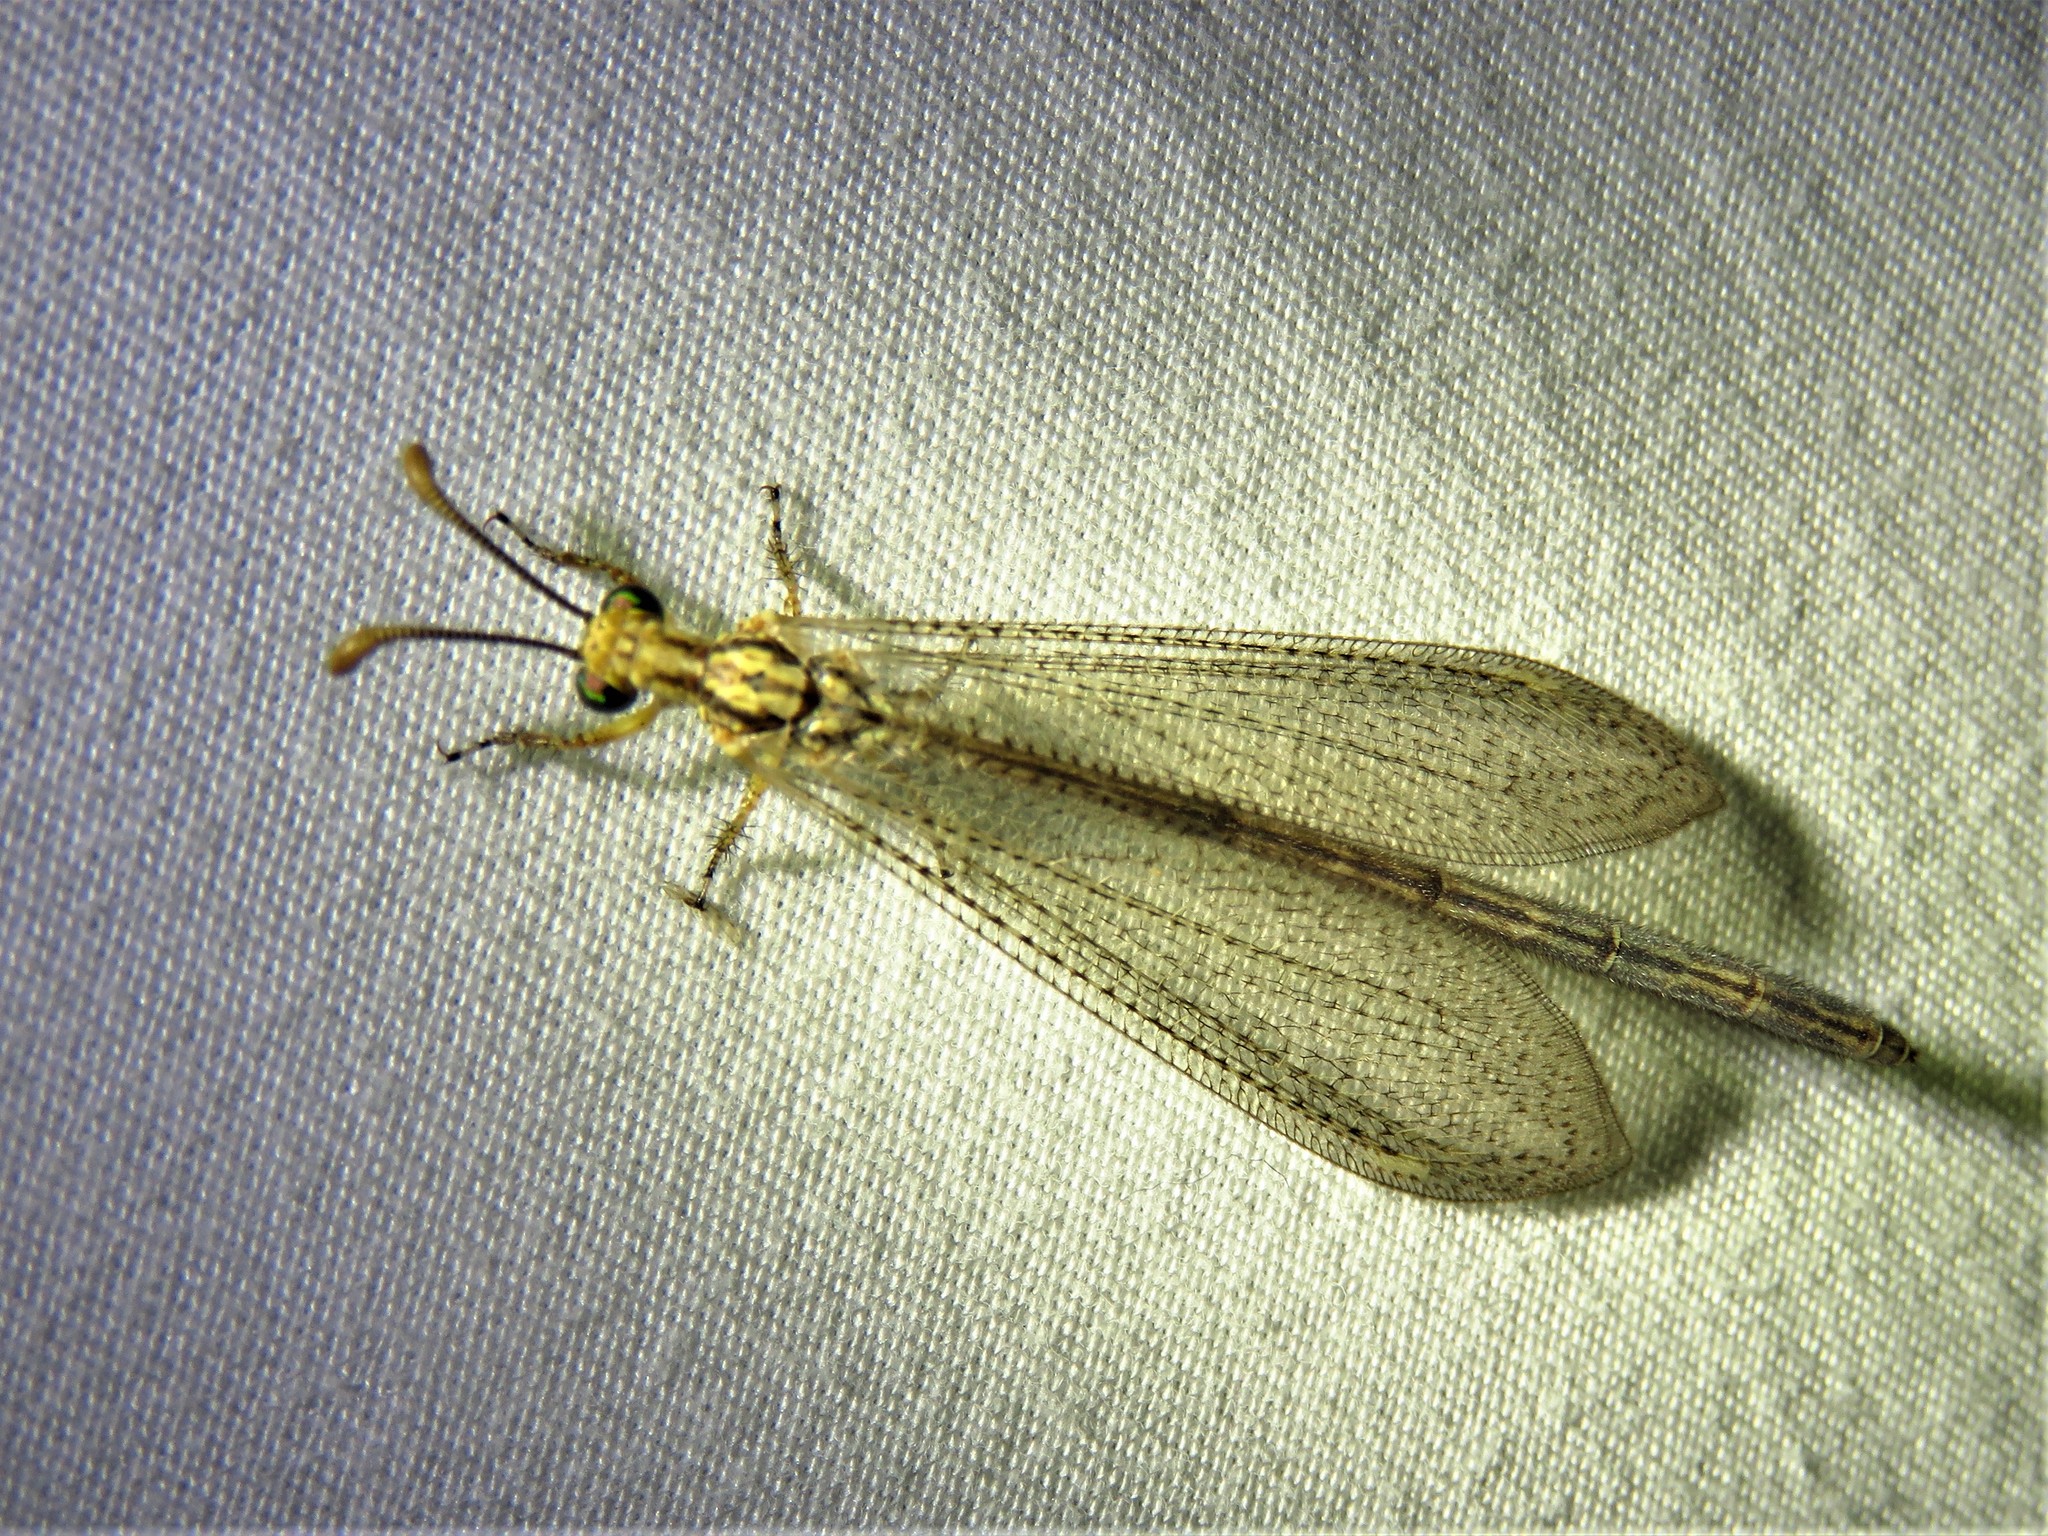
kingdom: Animalia
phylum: Arthropoda
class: Insecta
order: Neuroptera
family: Myrmeleontidae
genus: Brachynemurus
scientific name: Brachynemurus abdominalis
